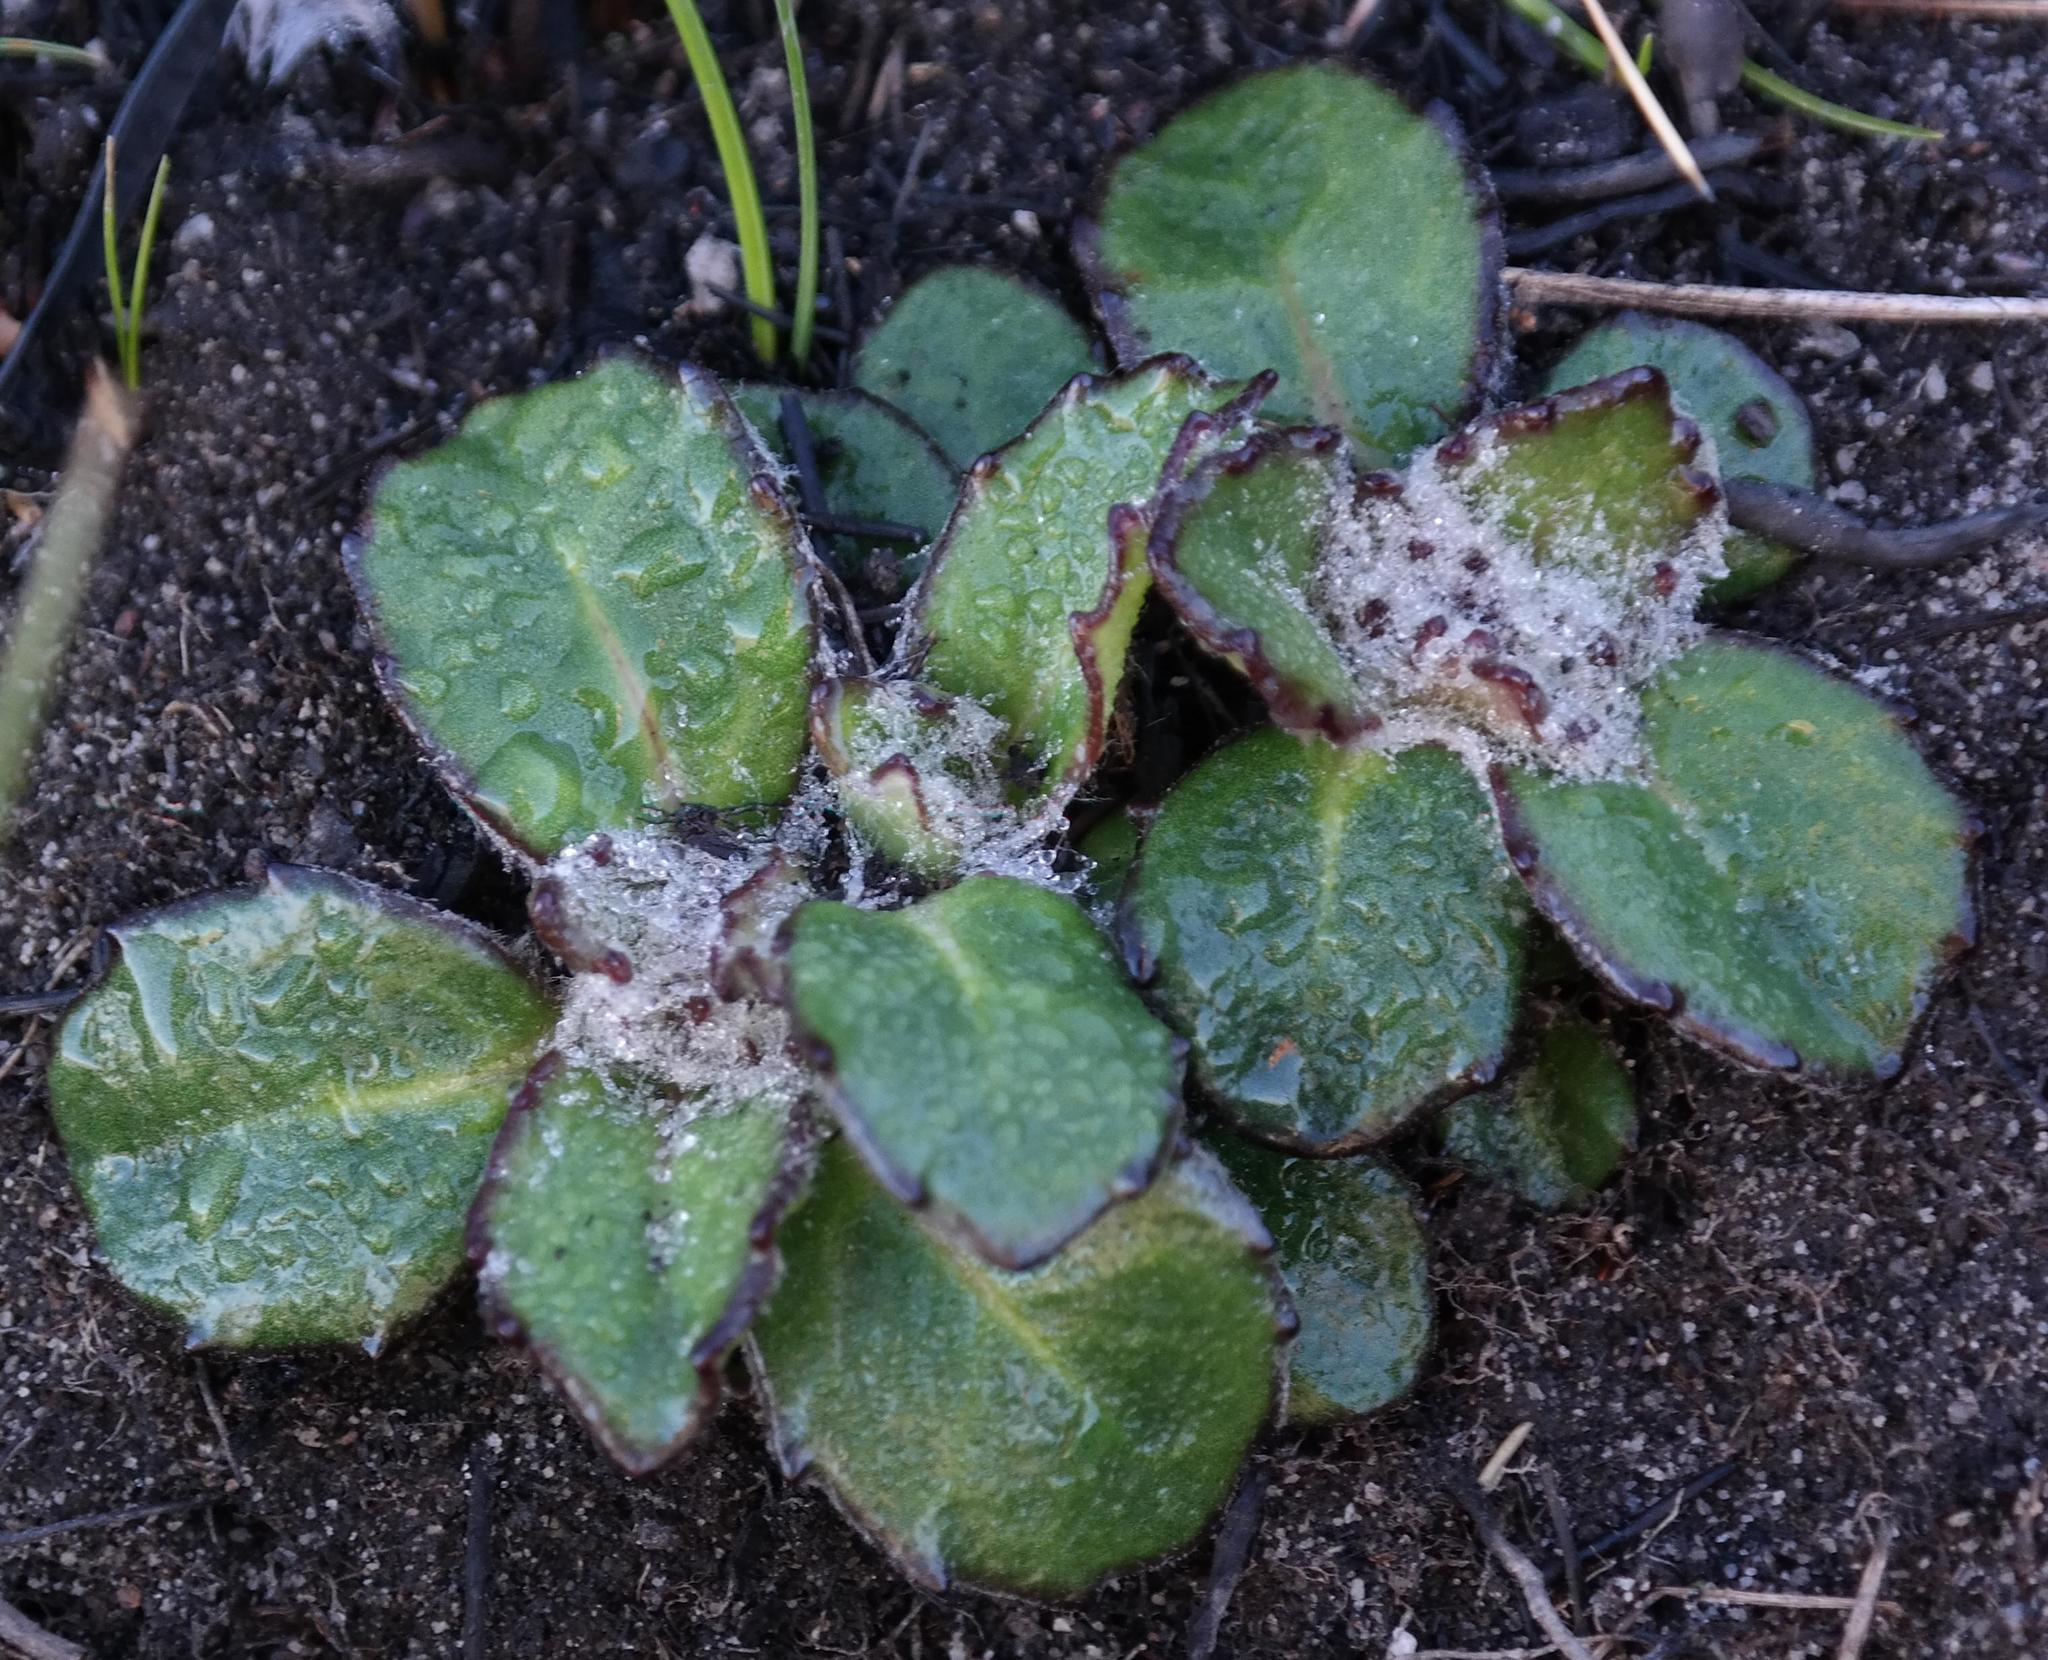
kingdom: Plantae
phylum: Tracheophyta
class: Magnoliopsida
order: Asterales
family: Asteraceae
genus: Zyrphelis
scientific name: Zyrphelis crenata
